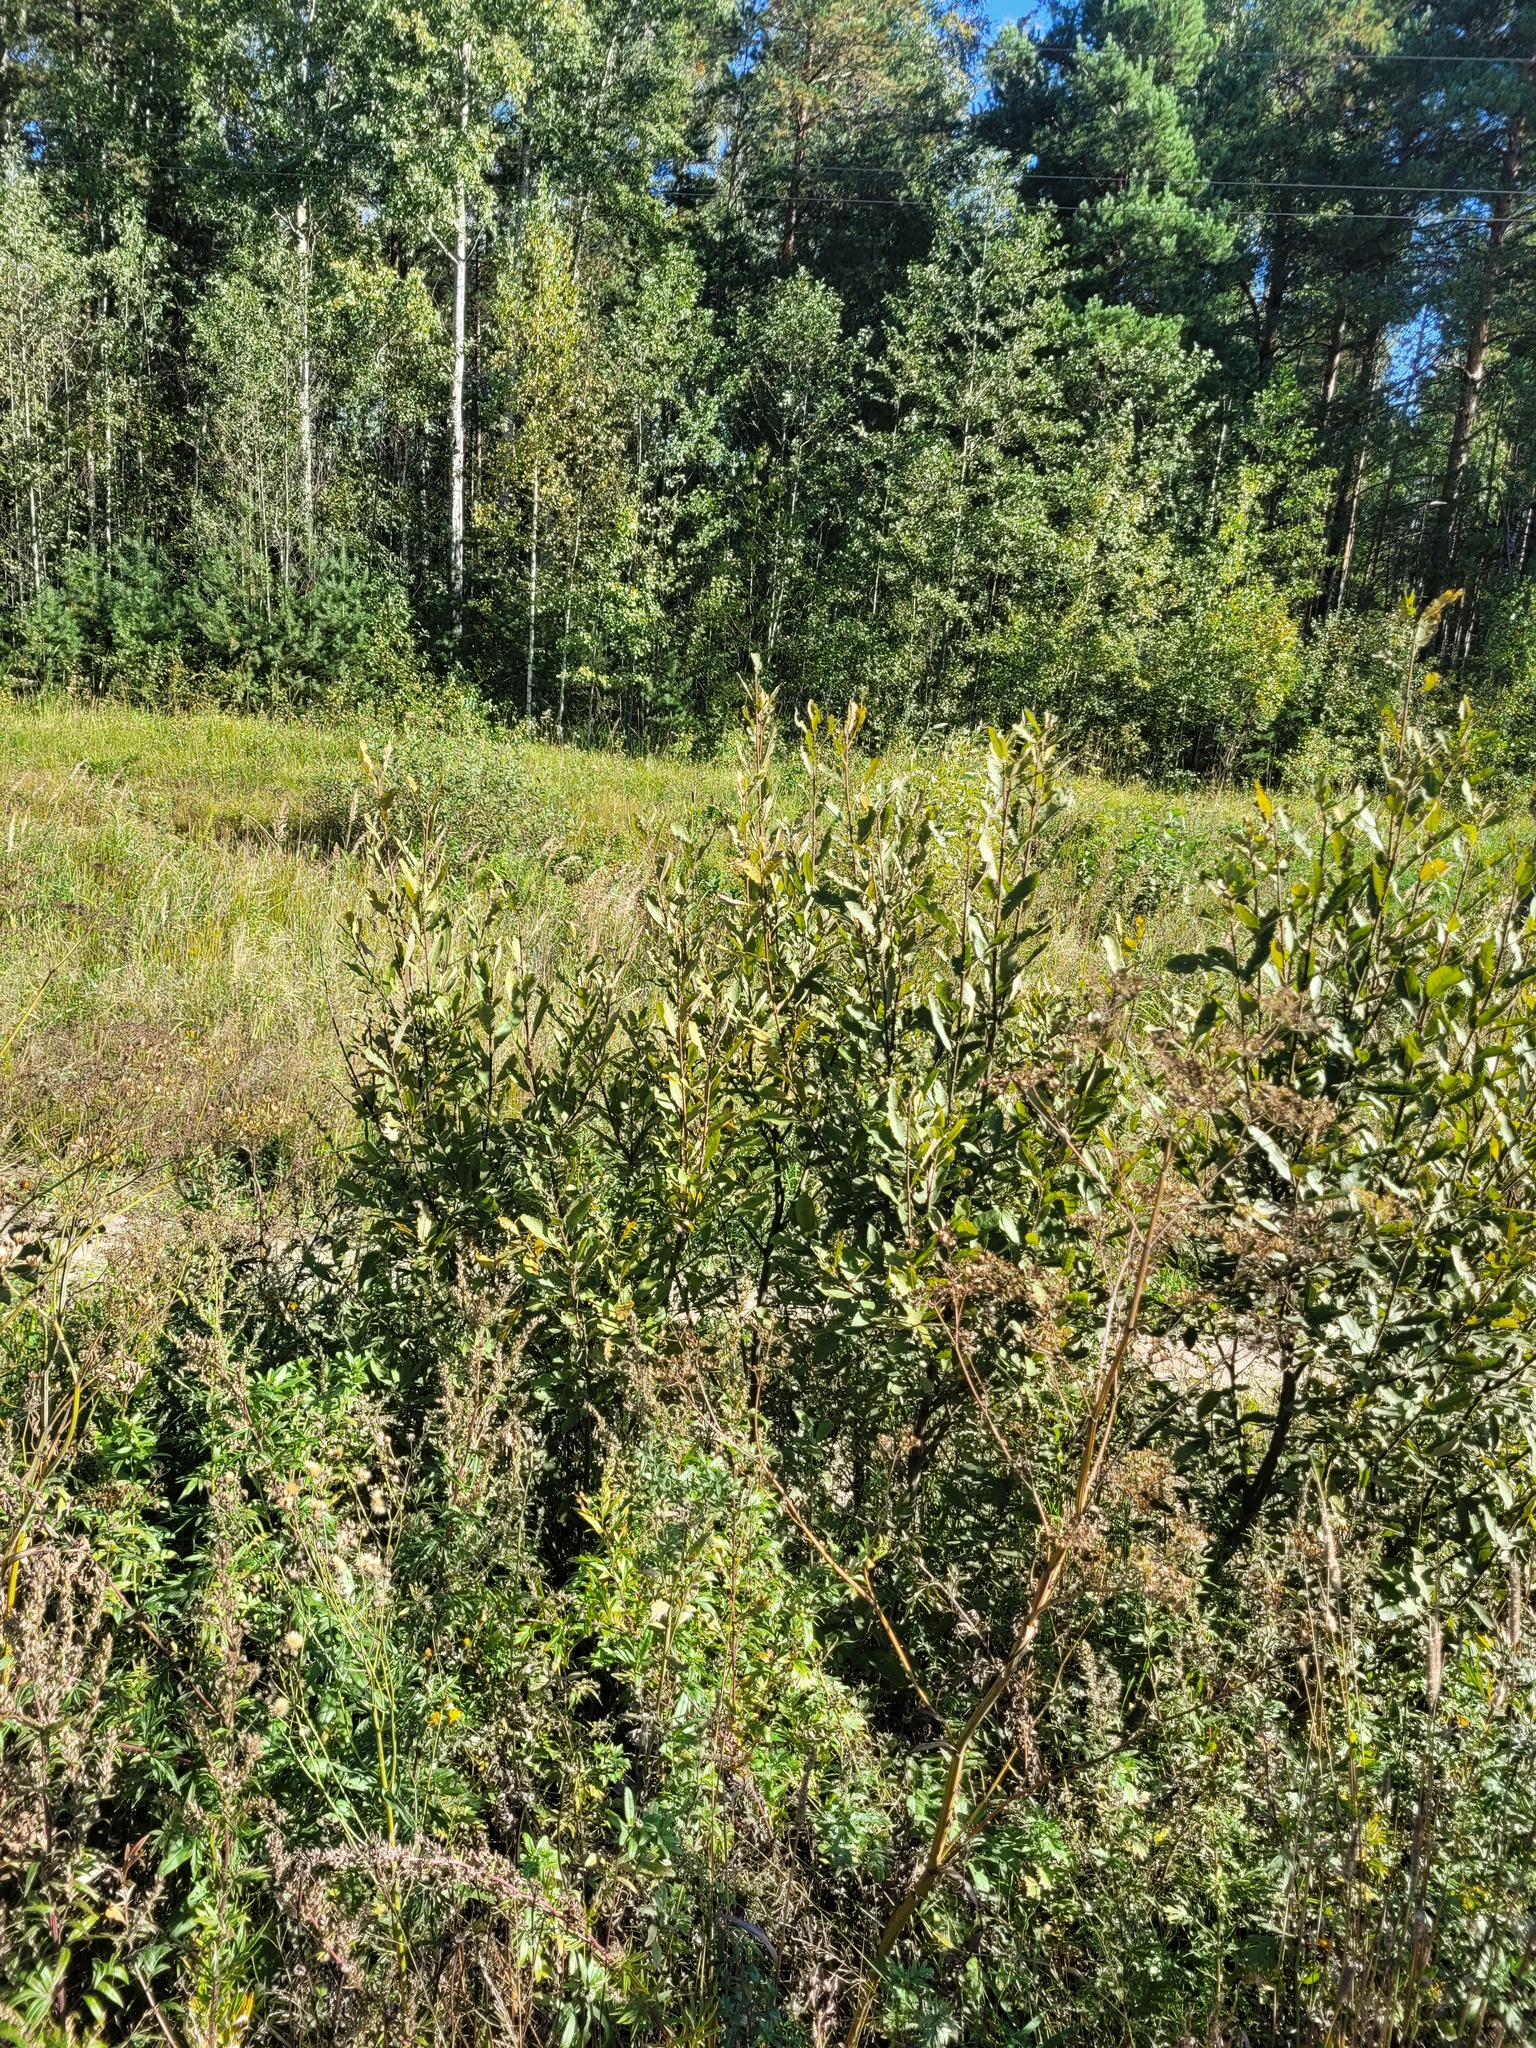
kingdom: Plantae
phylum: Tracheophyta
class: Magnoliopsida
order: Malpighiales
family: Salicaceae
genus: Salix
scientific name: Salix cinerea
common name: Common sallow
